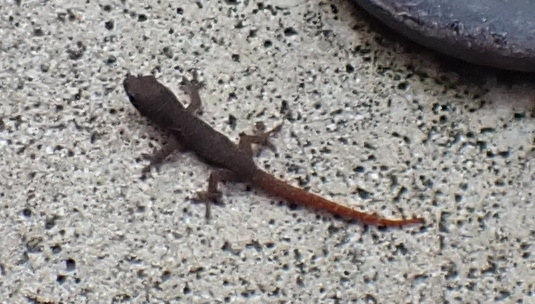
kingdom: Animalia
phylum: Chordata
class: Squamata
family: Gekkonidae
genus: Afrogecko
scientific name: Afrogecko porphyreus
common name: Marbled leaf-toed gecko
